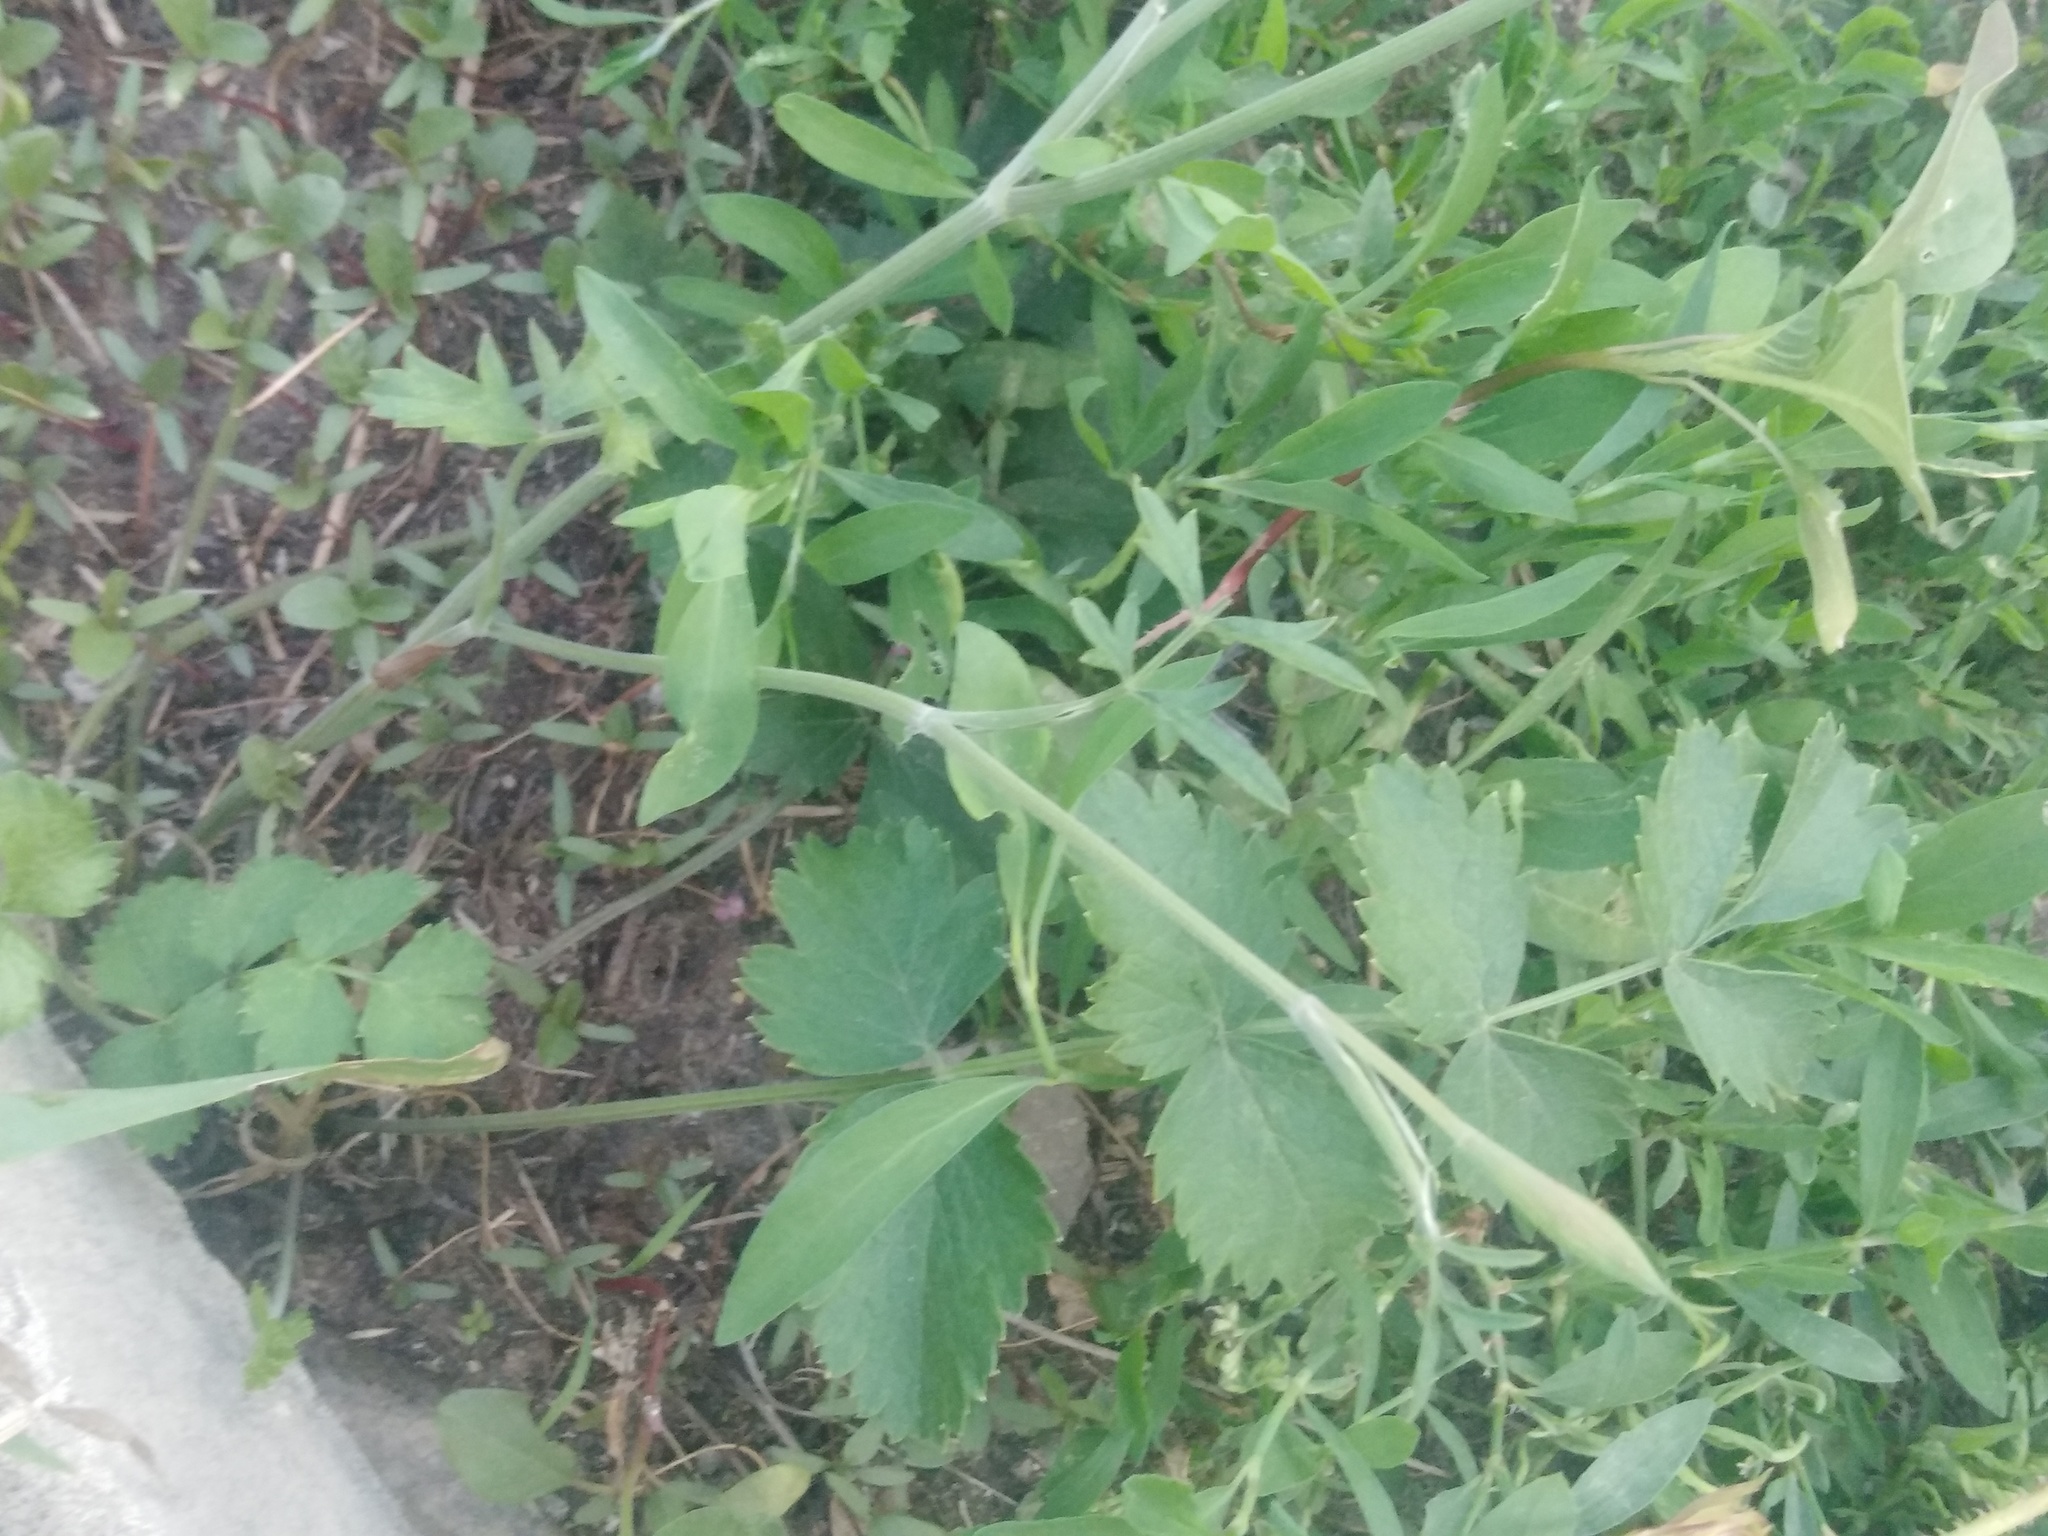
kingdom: Plantae
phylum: Tracheophyta
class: Magnoliopsida
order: Apiales
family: Apiaceae
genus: Pimpinella
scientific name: Pimpinella saxifraga
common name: Burnet-saxifrage
